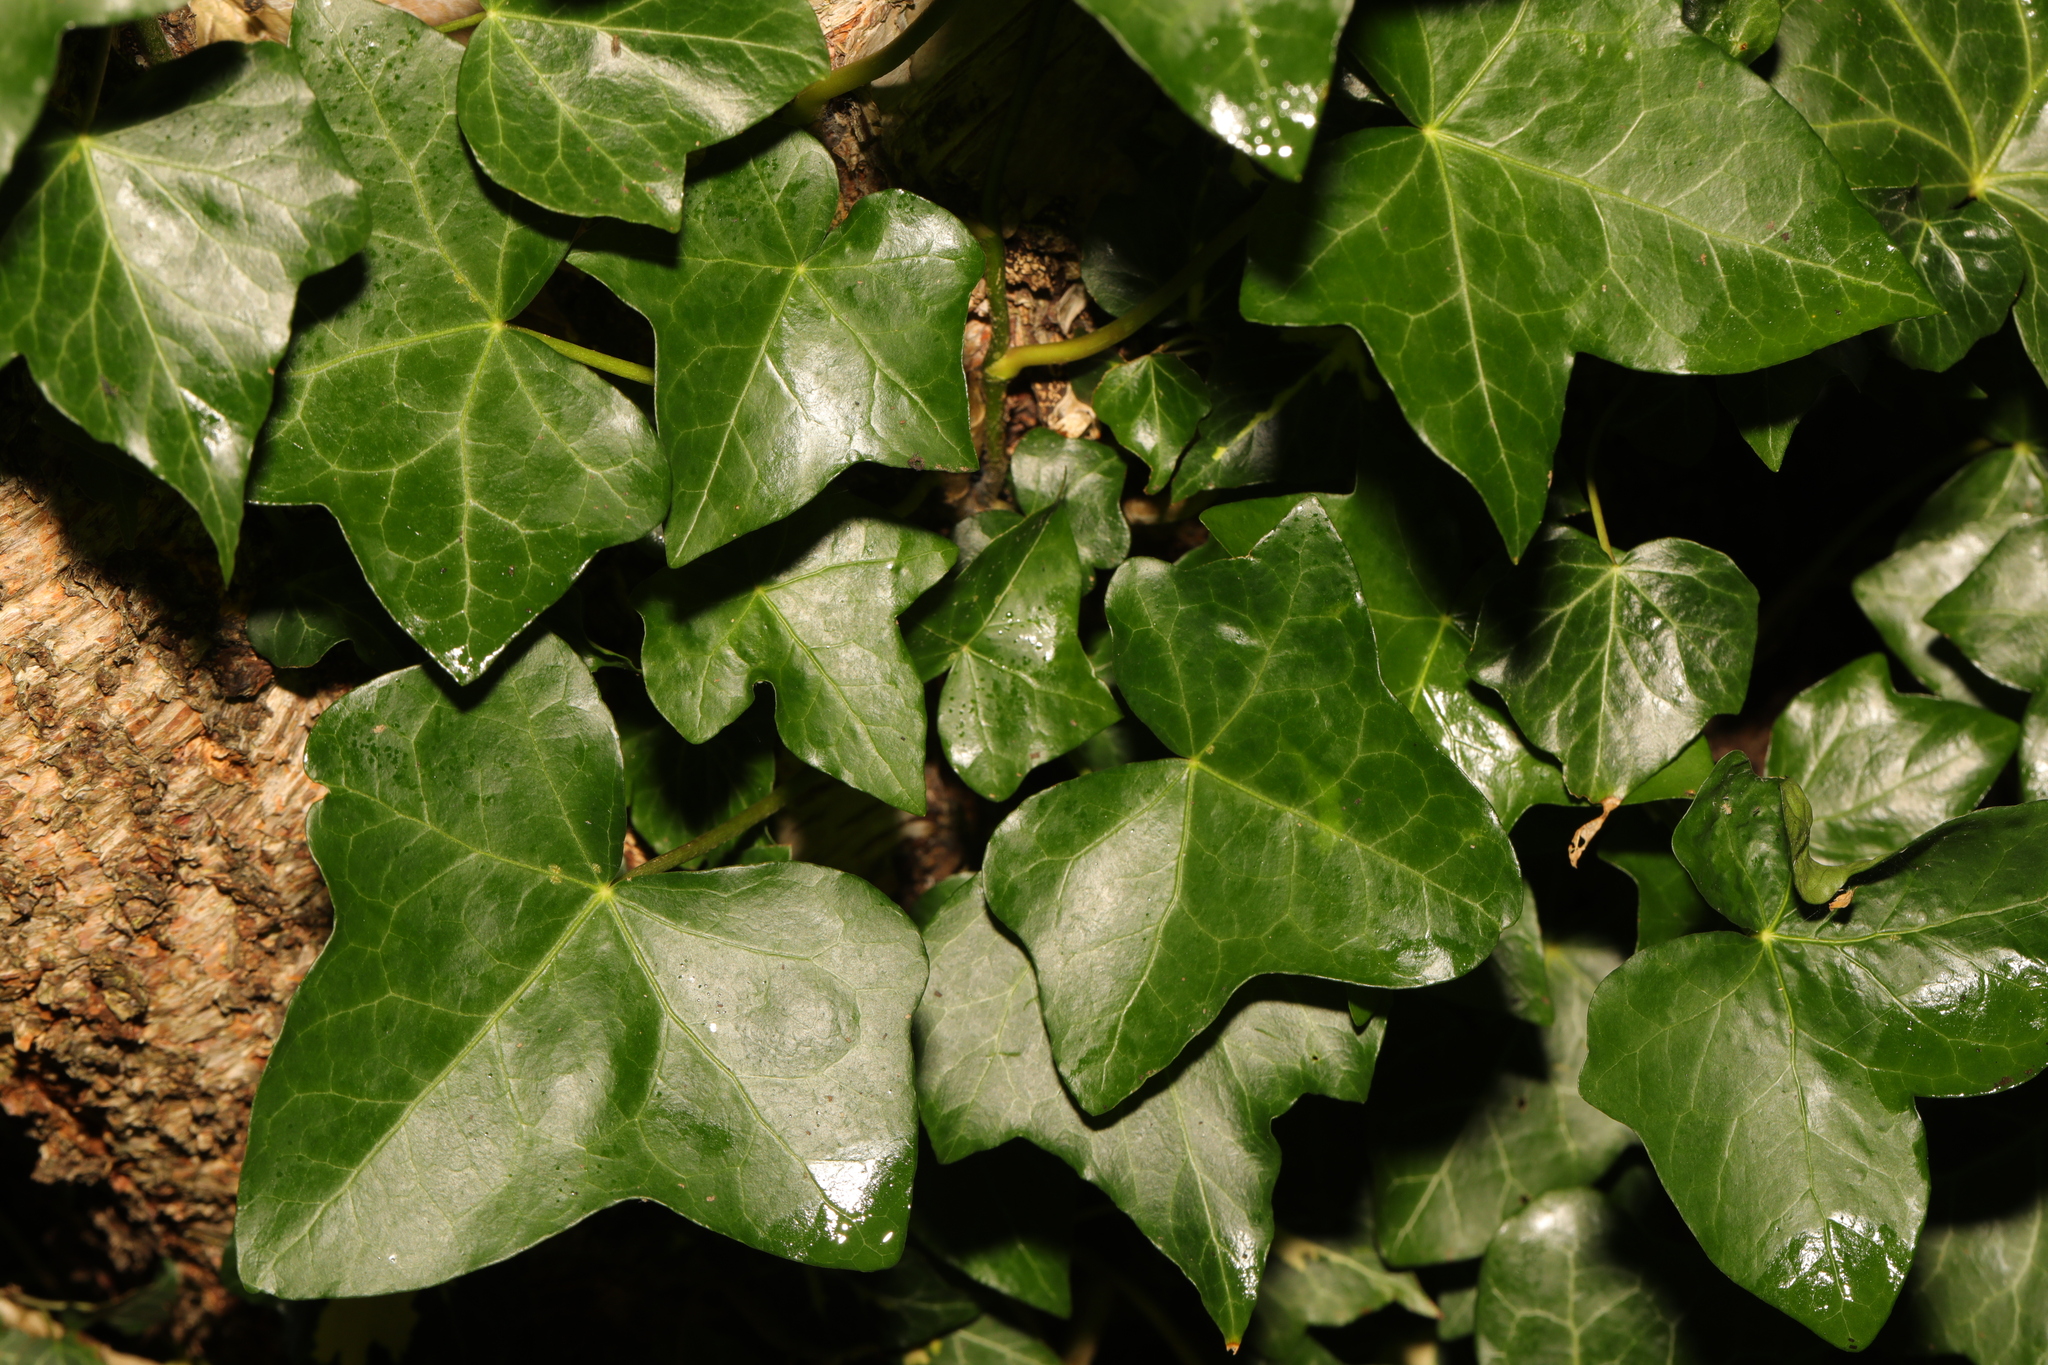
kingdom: Plantae
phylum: Tracheophyta
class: Magnoliopsida
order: Apiales
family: Araliaceae
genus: Hedera
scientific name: Hedera helix
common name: Ivy
